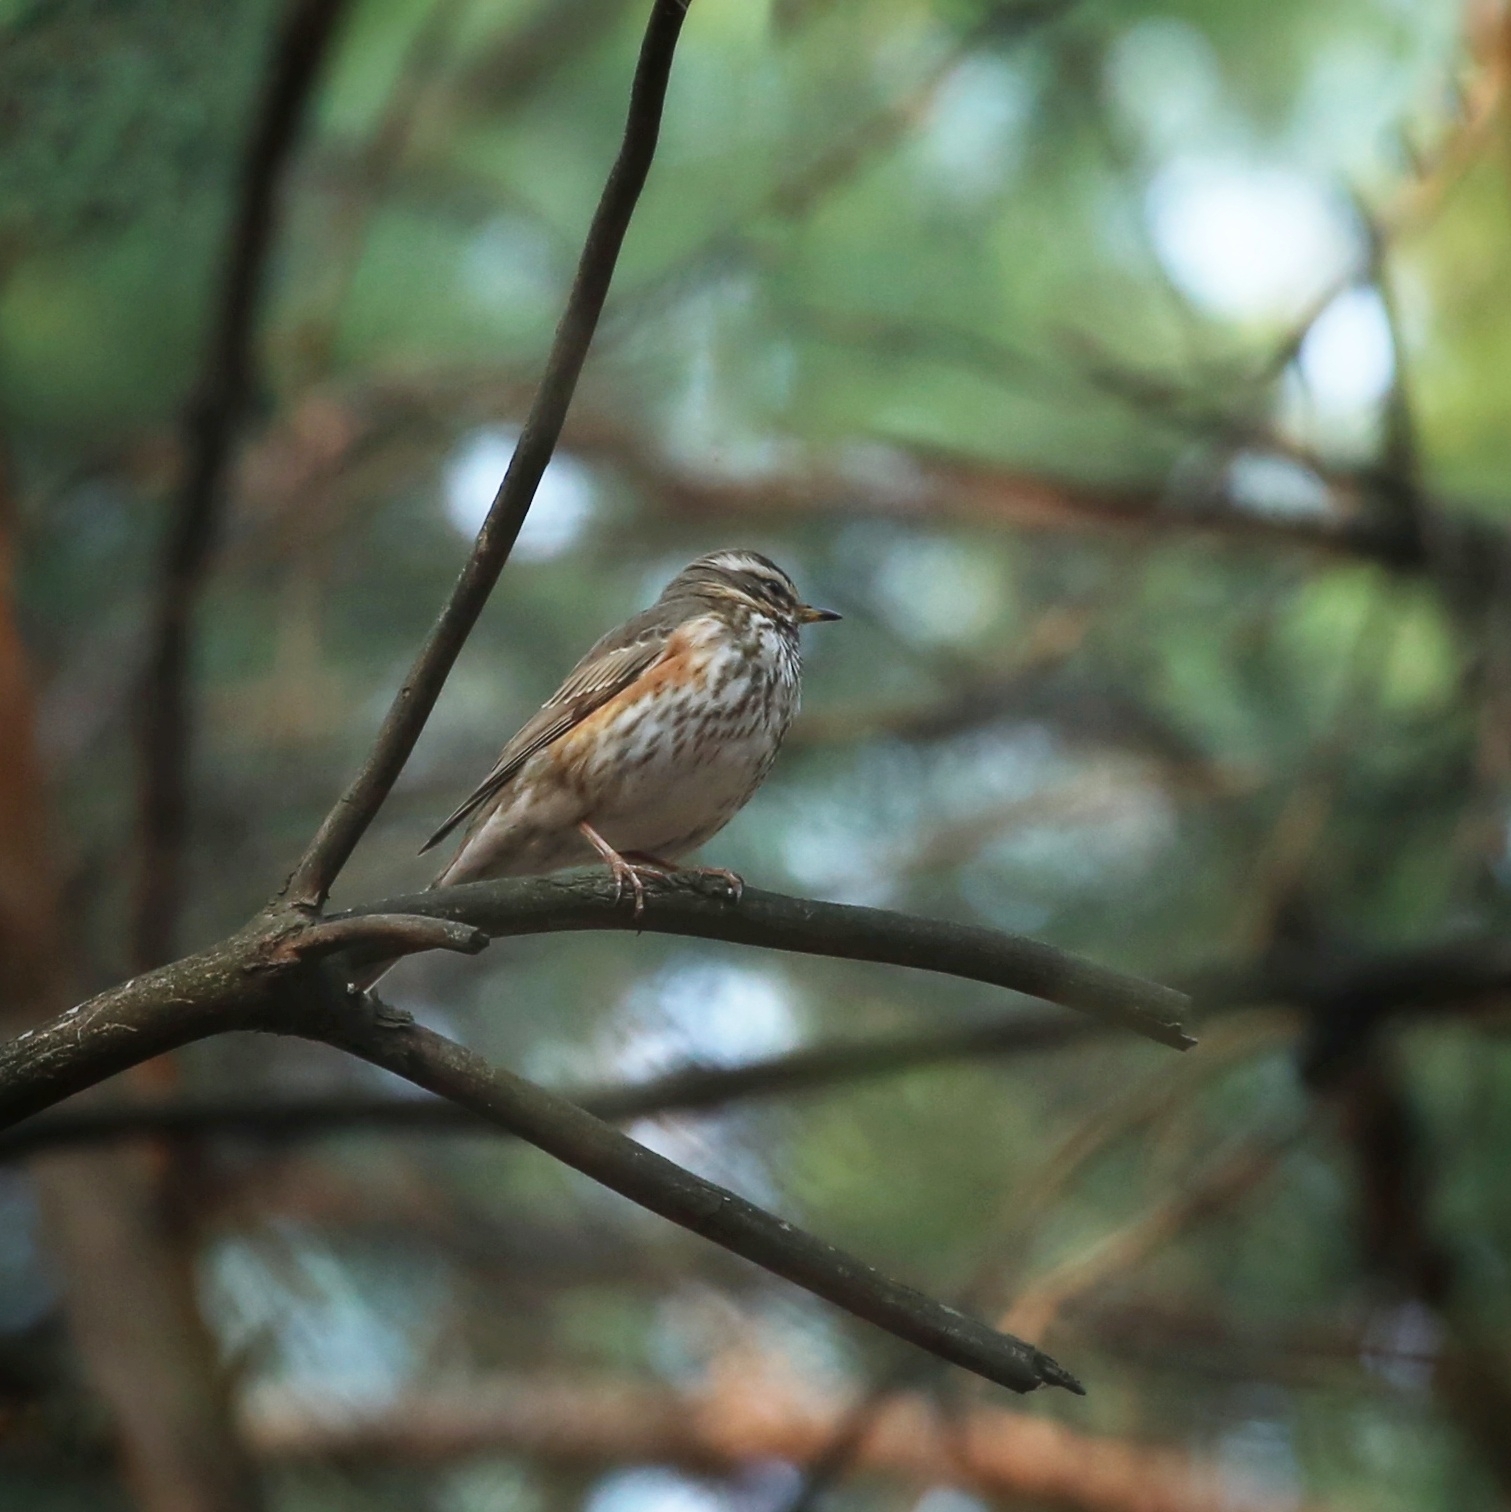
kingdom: Animalia
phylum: Chordata
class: Aves
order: Passeriformes
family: Turdidae
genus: Turdus
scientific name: Turdus iliacus
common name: Redwing
